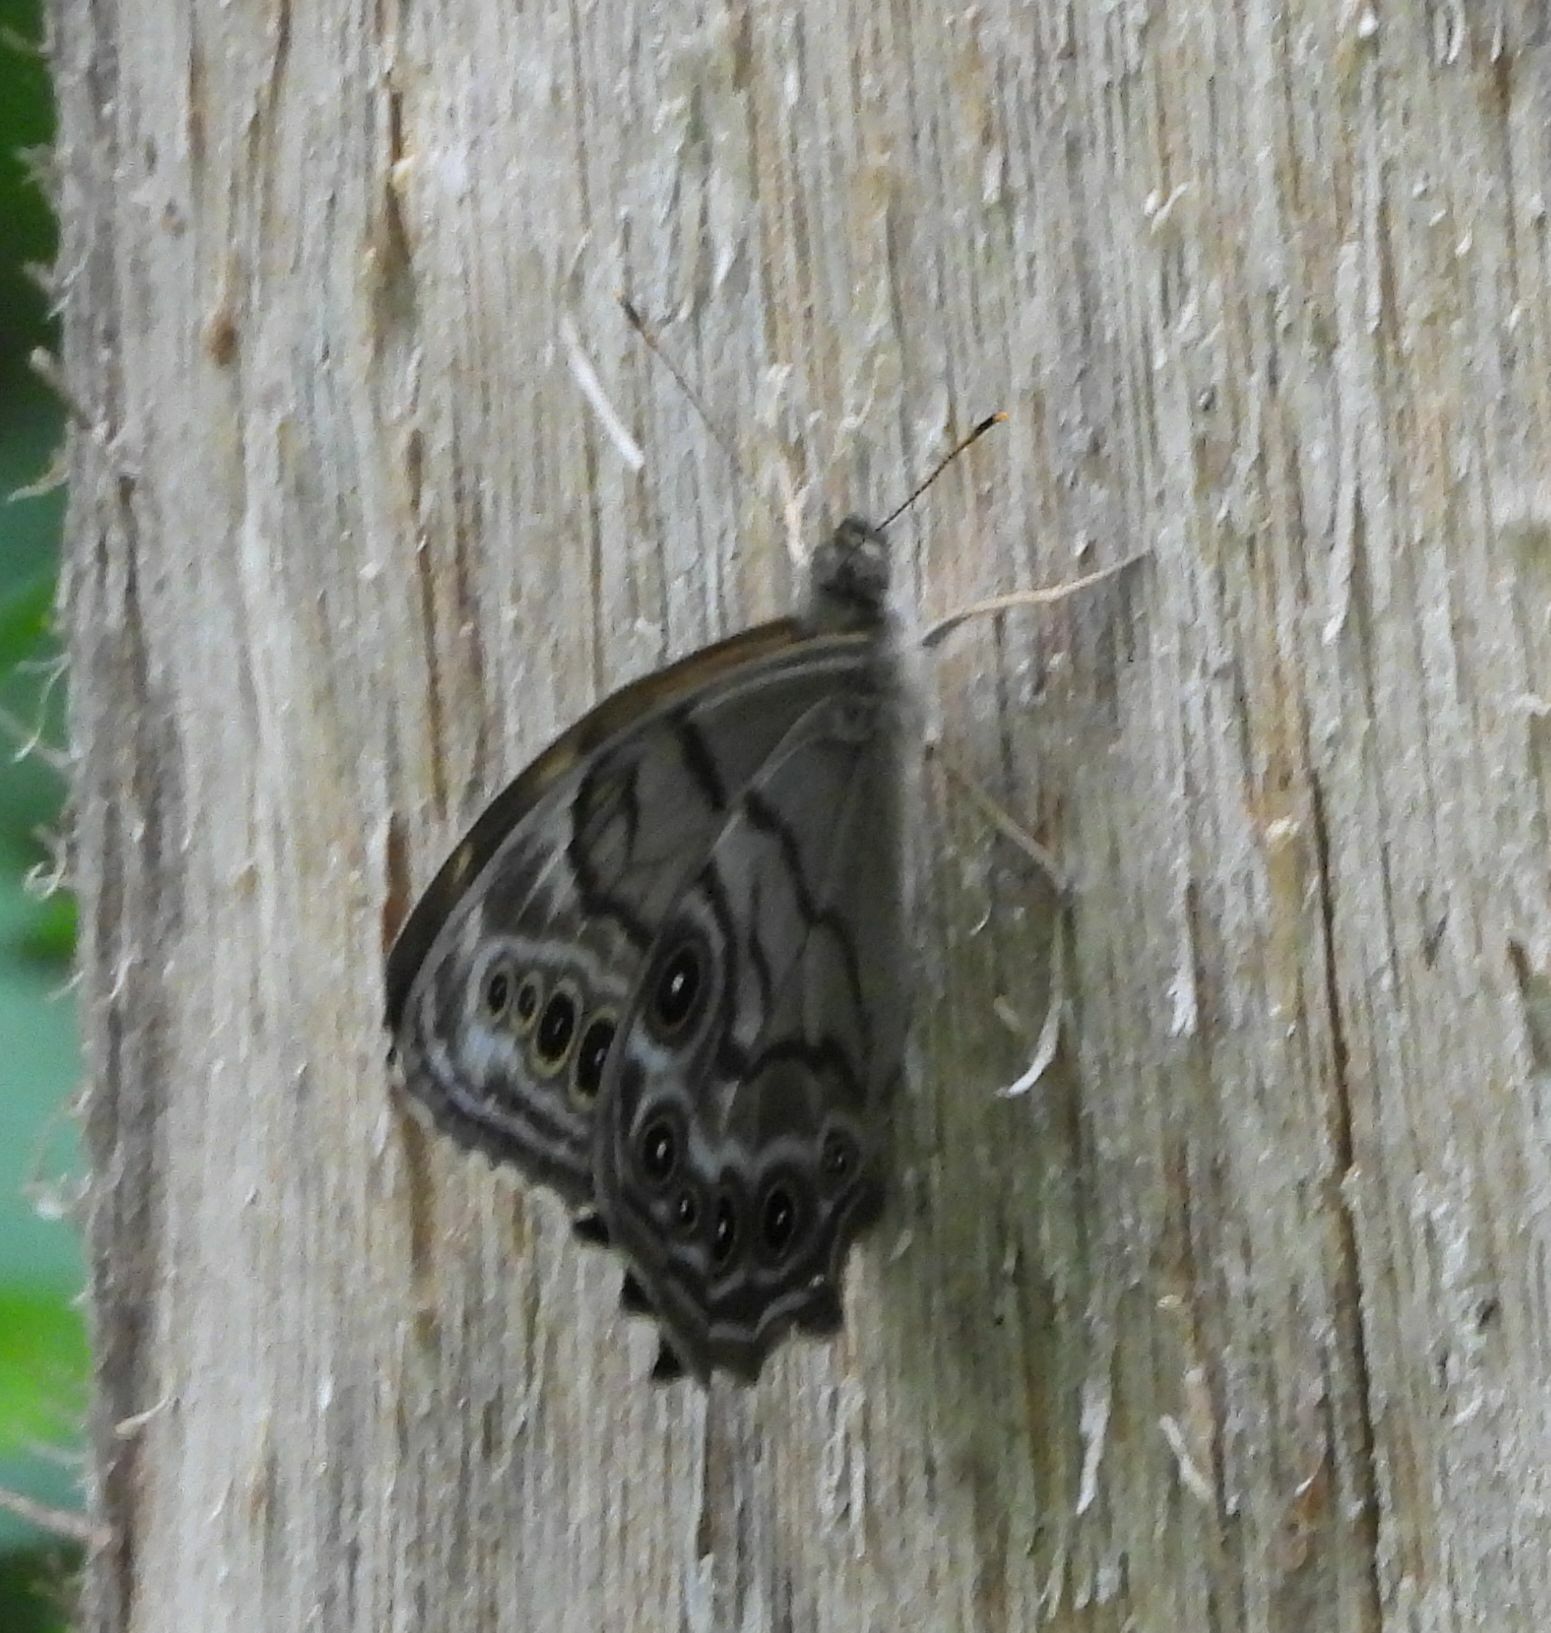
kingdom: Animalia
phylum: Arthropoda
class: Insecta
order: Lepidoptera
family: Nymphalidae
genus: Lethe
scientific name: Lethe anthedon
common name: Northern pearly-eye
